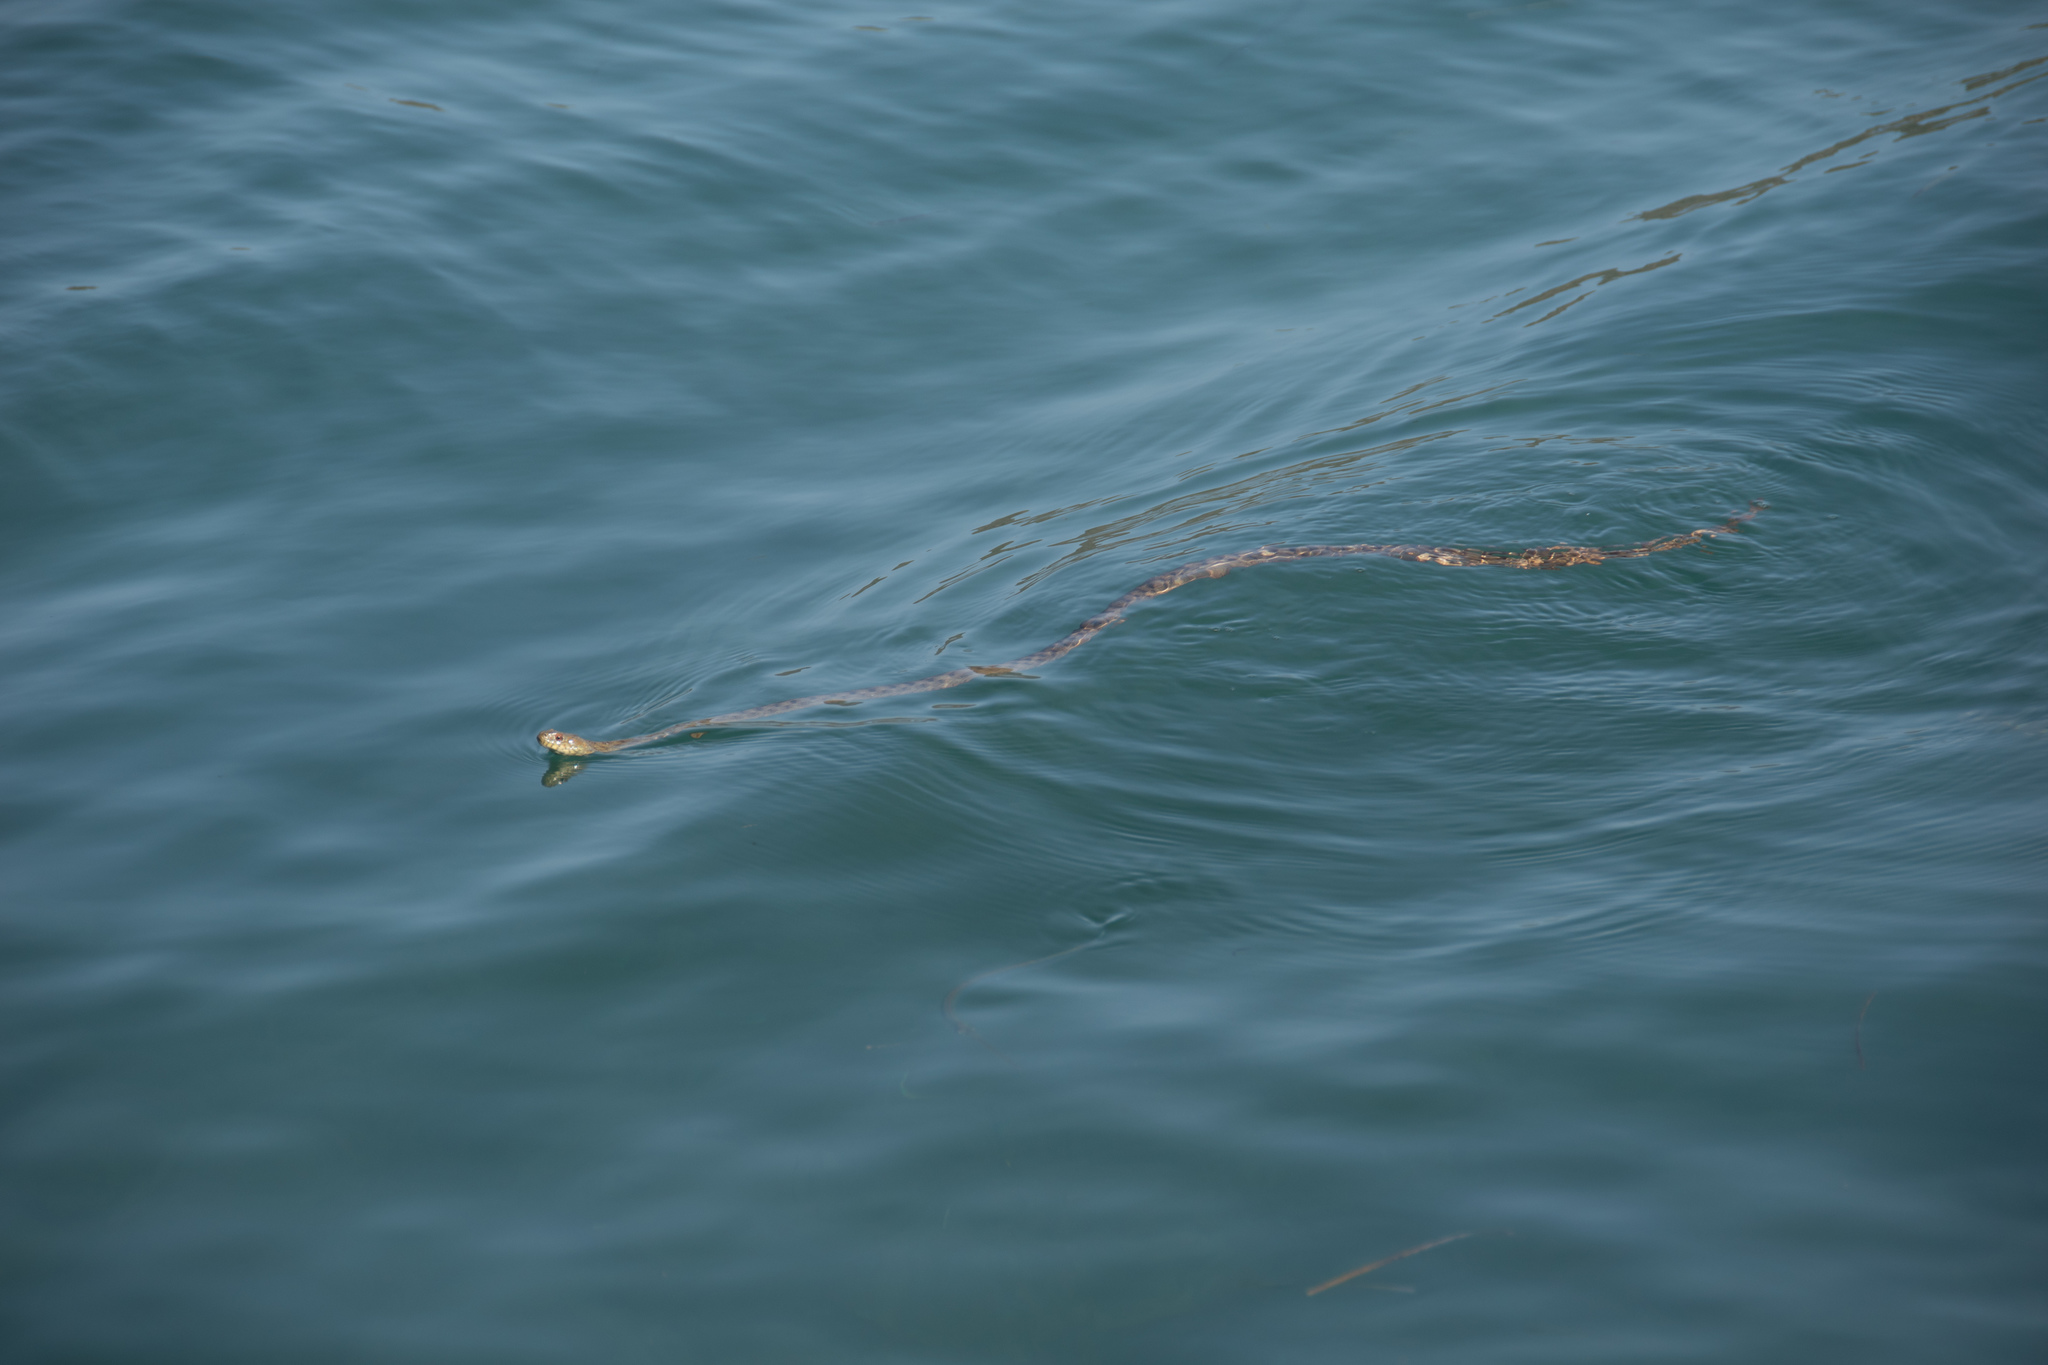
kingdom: Animalia
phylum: Chordata
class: Squamata
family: Colubridae
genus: Natrix
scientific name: Natrix tessellata
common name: Dice snake
